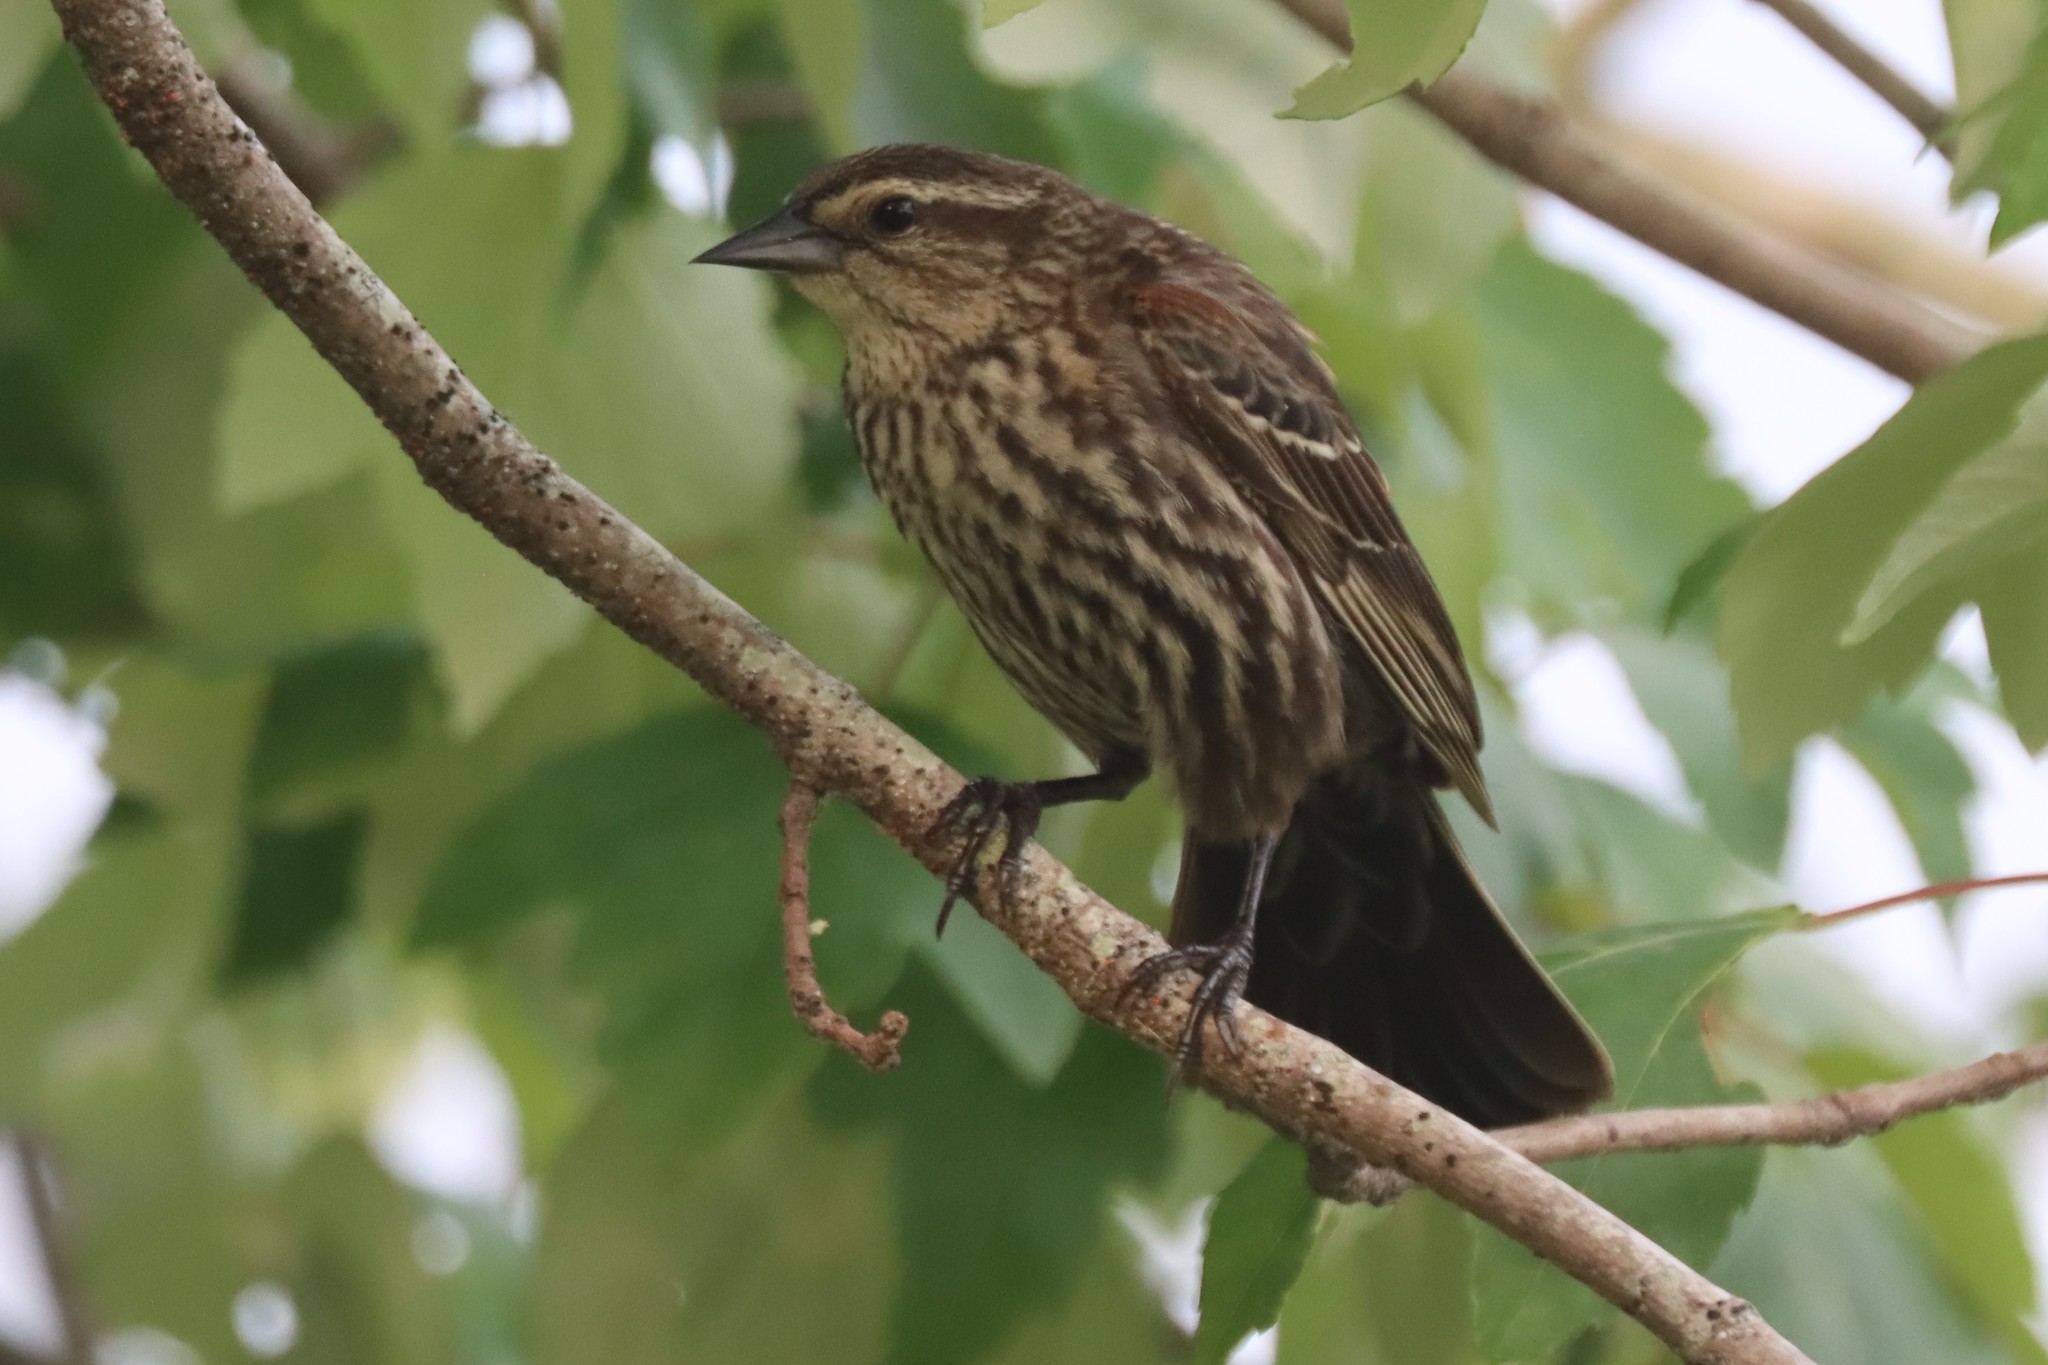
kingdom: Animalia
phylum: Chordata
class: Aves
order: Passeriformes
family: Icteridae
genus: Agelaius
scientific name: Agelaius phoeniceus
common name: Red-winged blackbird
